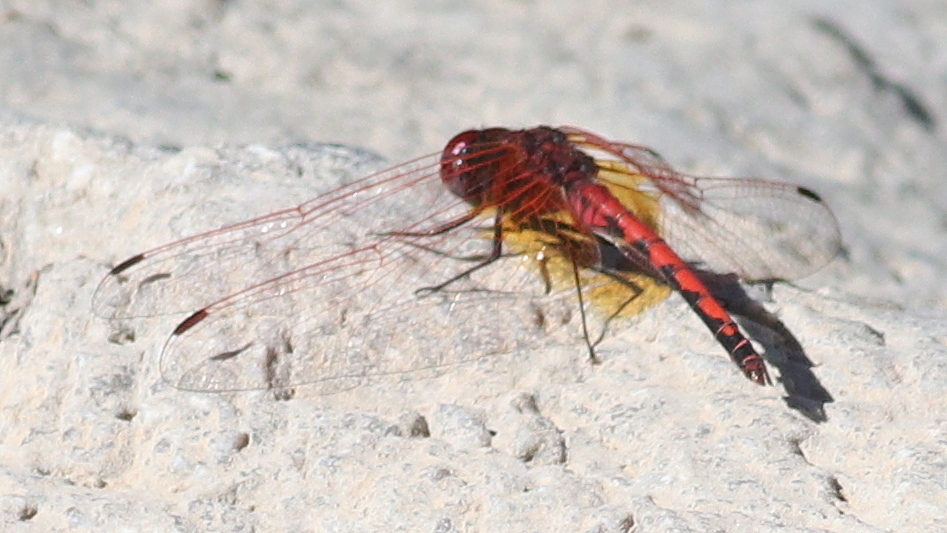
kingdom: Animalia
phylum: Arthropoda
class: Insecta
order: Odonata
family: Libellulidae
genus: Trithemis
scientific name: Trithemis arteriosa
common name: Red-veined dropwing
